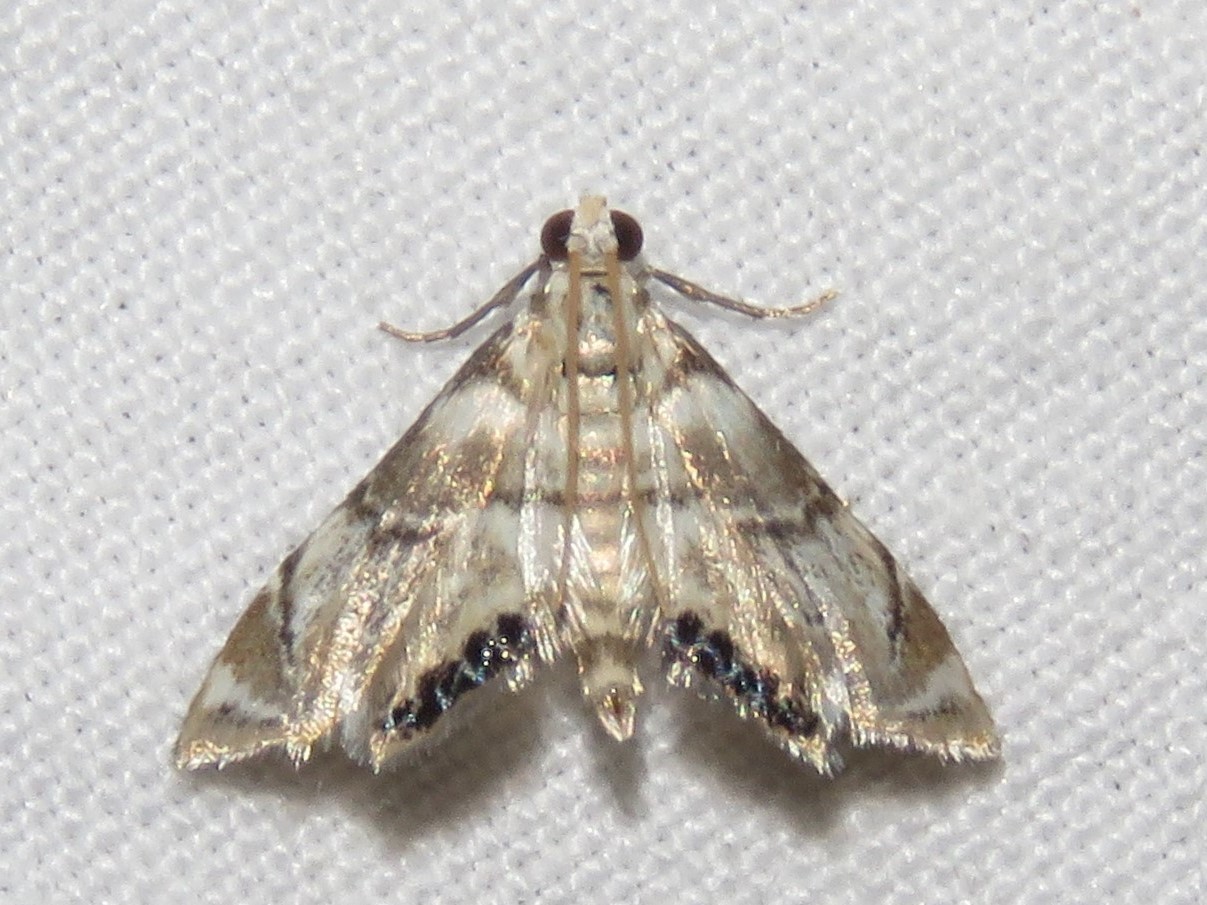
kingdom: Animalia
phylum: Arthropoda
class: Insecta
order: Lepidoptera
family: Crambidae
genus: Eoparargyractis
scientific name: Eoparargyractis plevie
